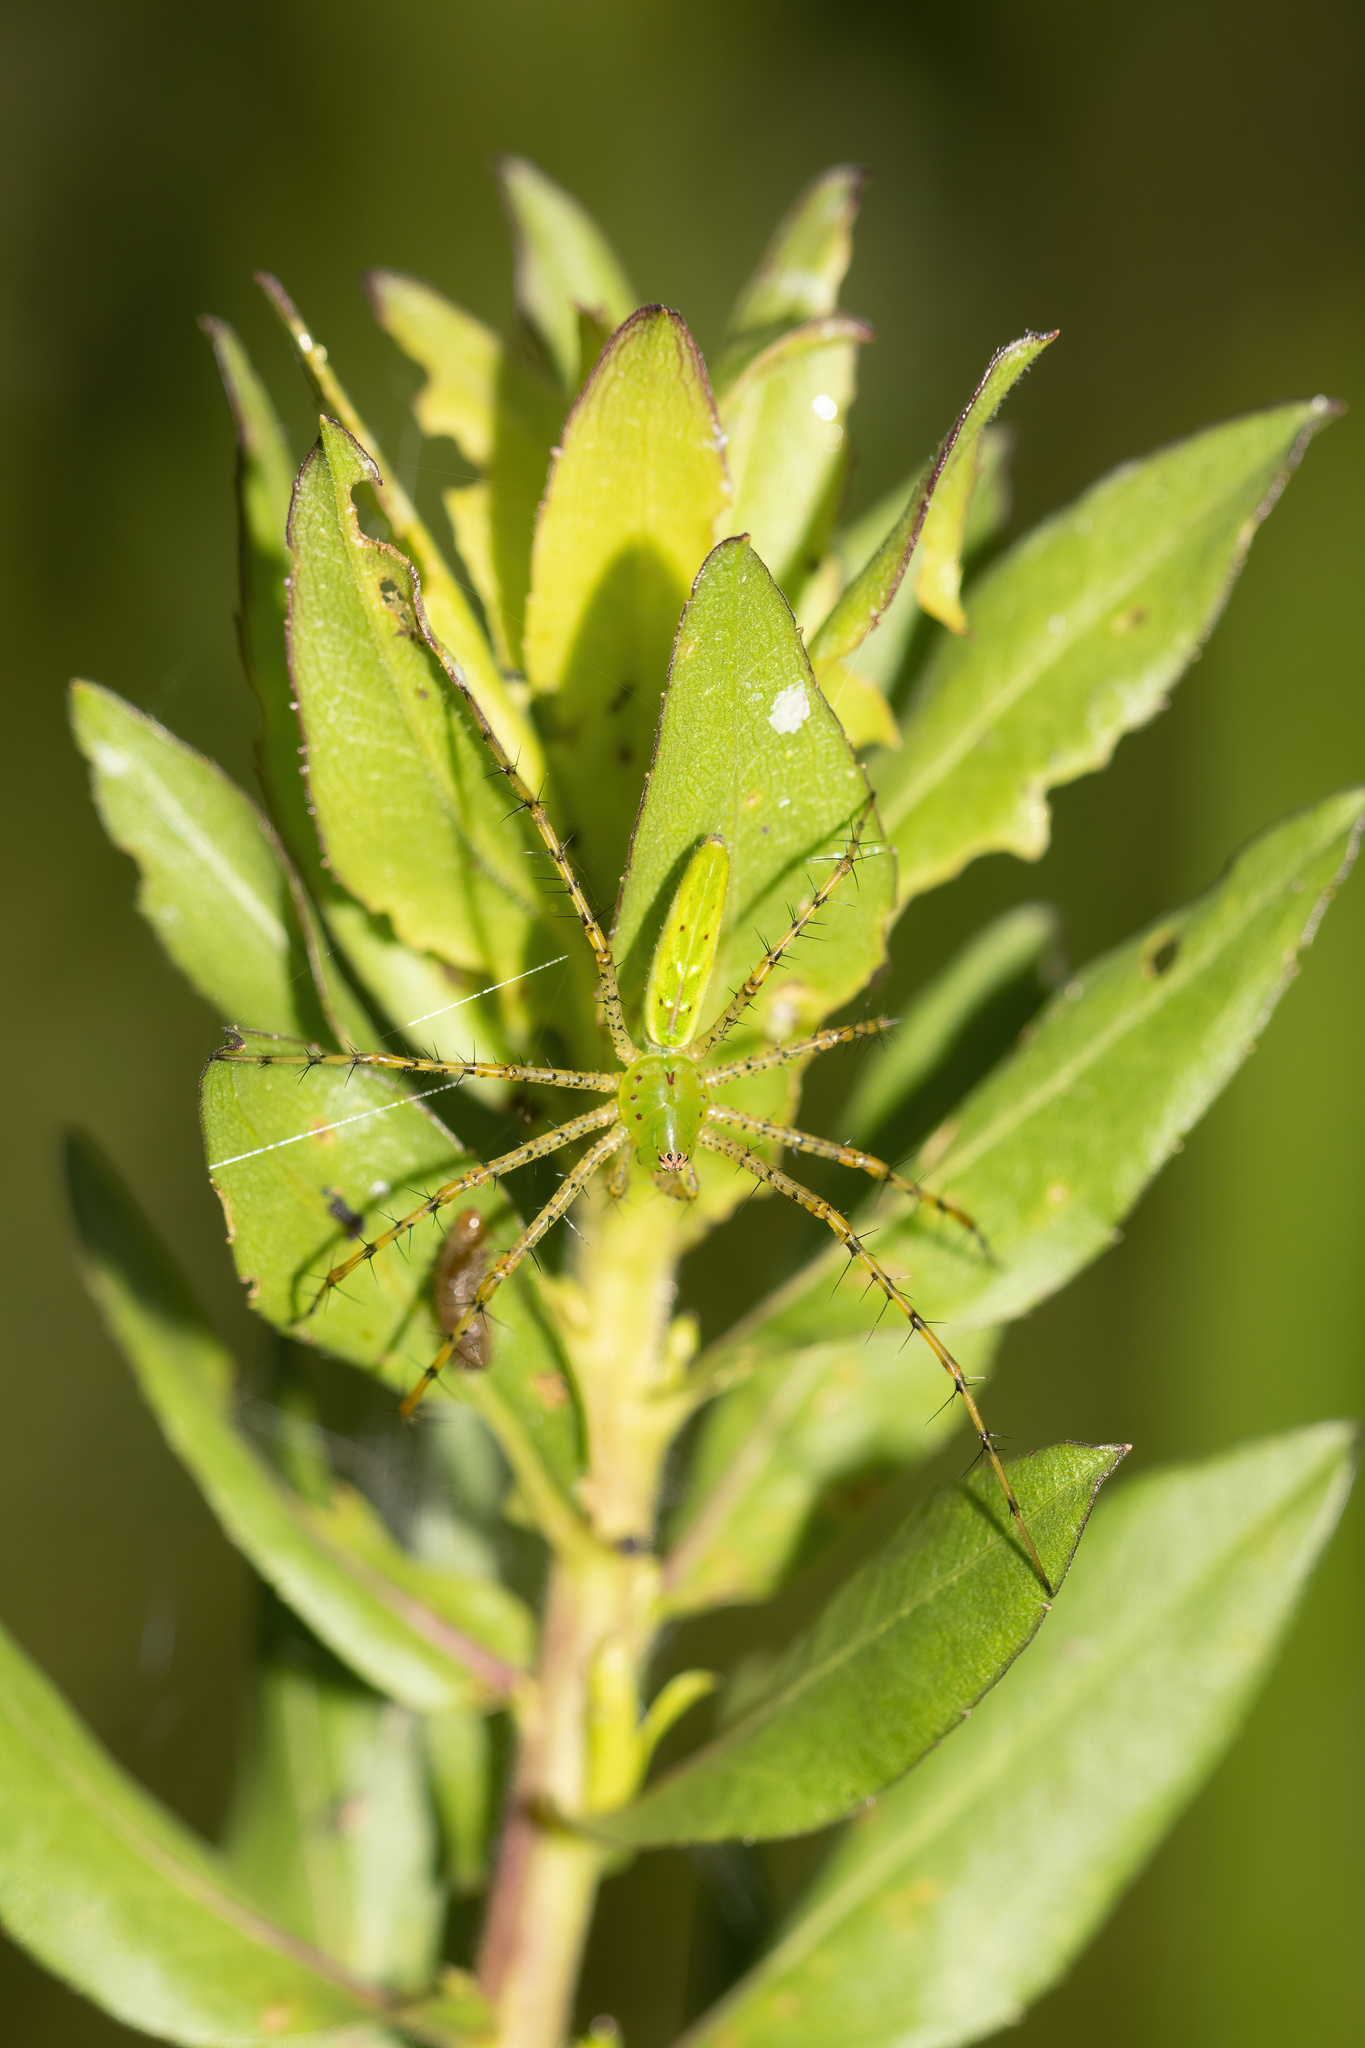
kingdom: Animalia
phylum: Arthropoda
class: Arachnida
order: Araneae
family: Oxyopidae
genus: Peucetia
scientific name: Peucetia viridans
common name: Lynx spiders
